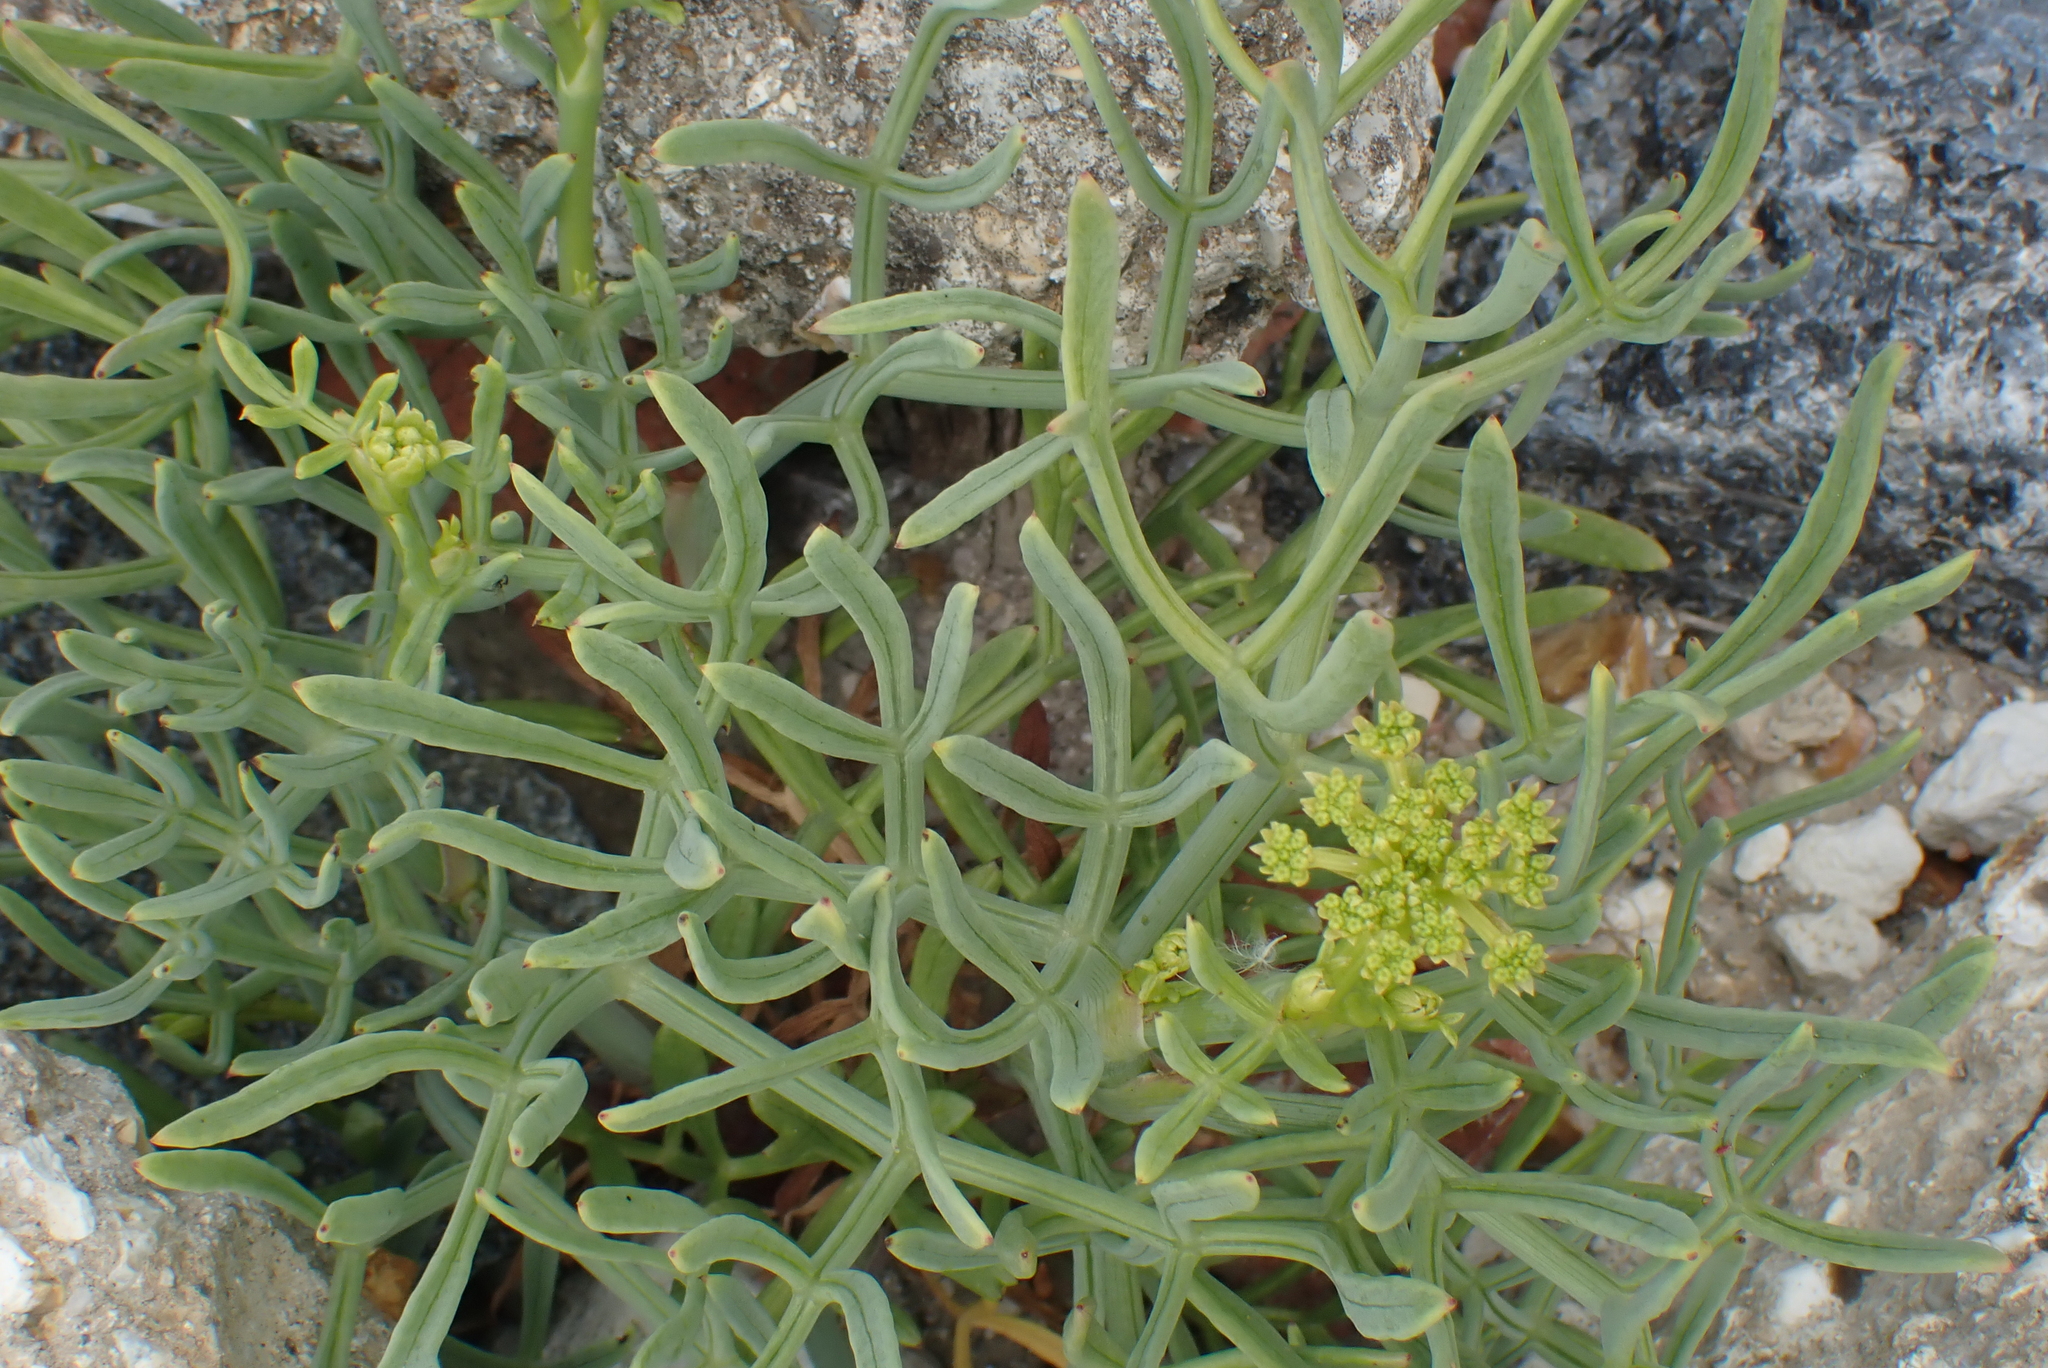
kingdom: Plantae
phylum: Tracheophyta
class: Magnoliopsida
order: Apiales
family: Apiaceae
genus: Crithmum
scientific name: Crithmum maritimum
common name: Rock samphire
